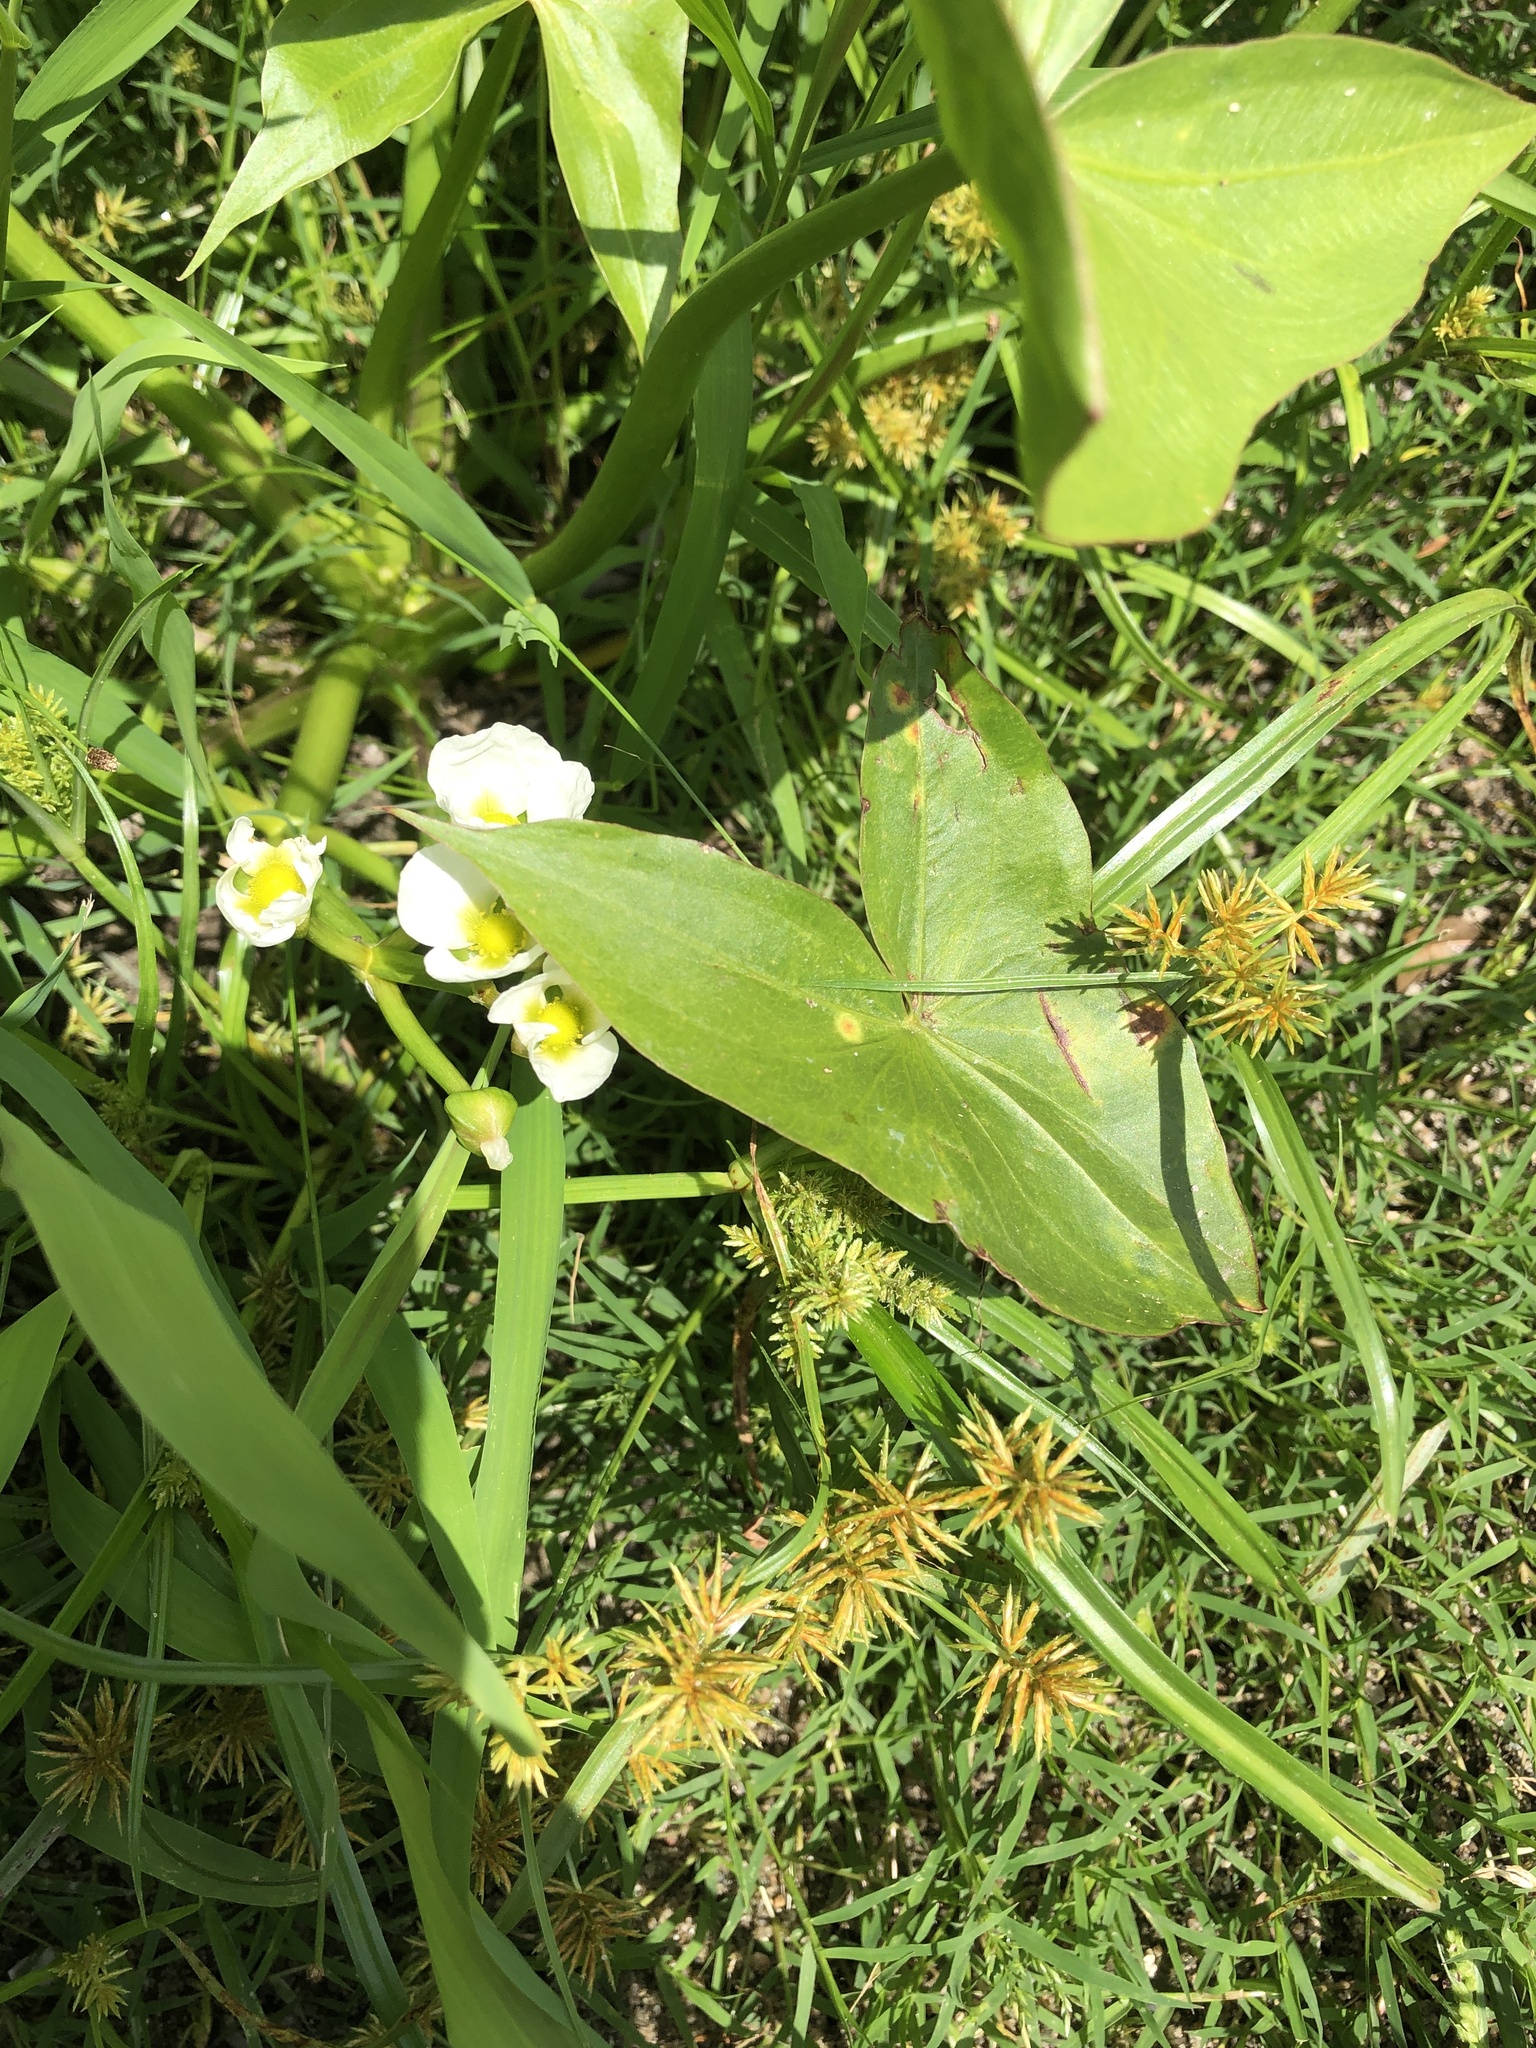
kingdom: Plantae
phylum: Tracheophyta
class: Liliopsida
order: Alismatales
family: Alismataceae
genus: Sagittaria
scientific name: Sagittaria calycina
